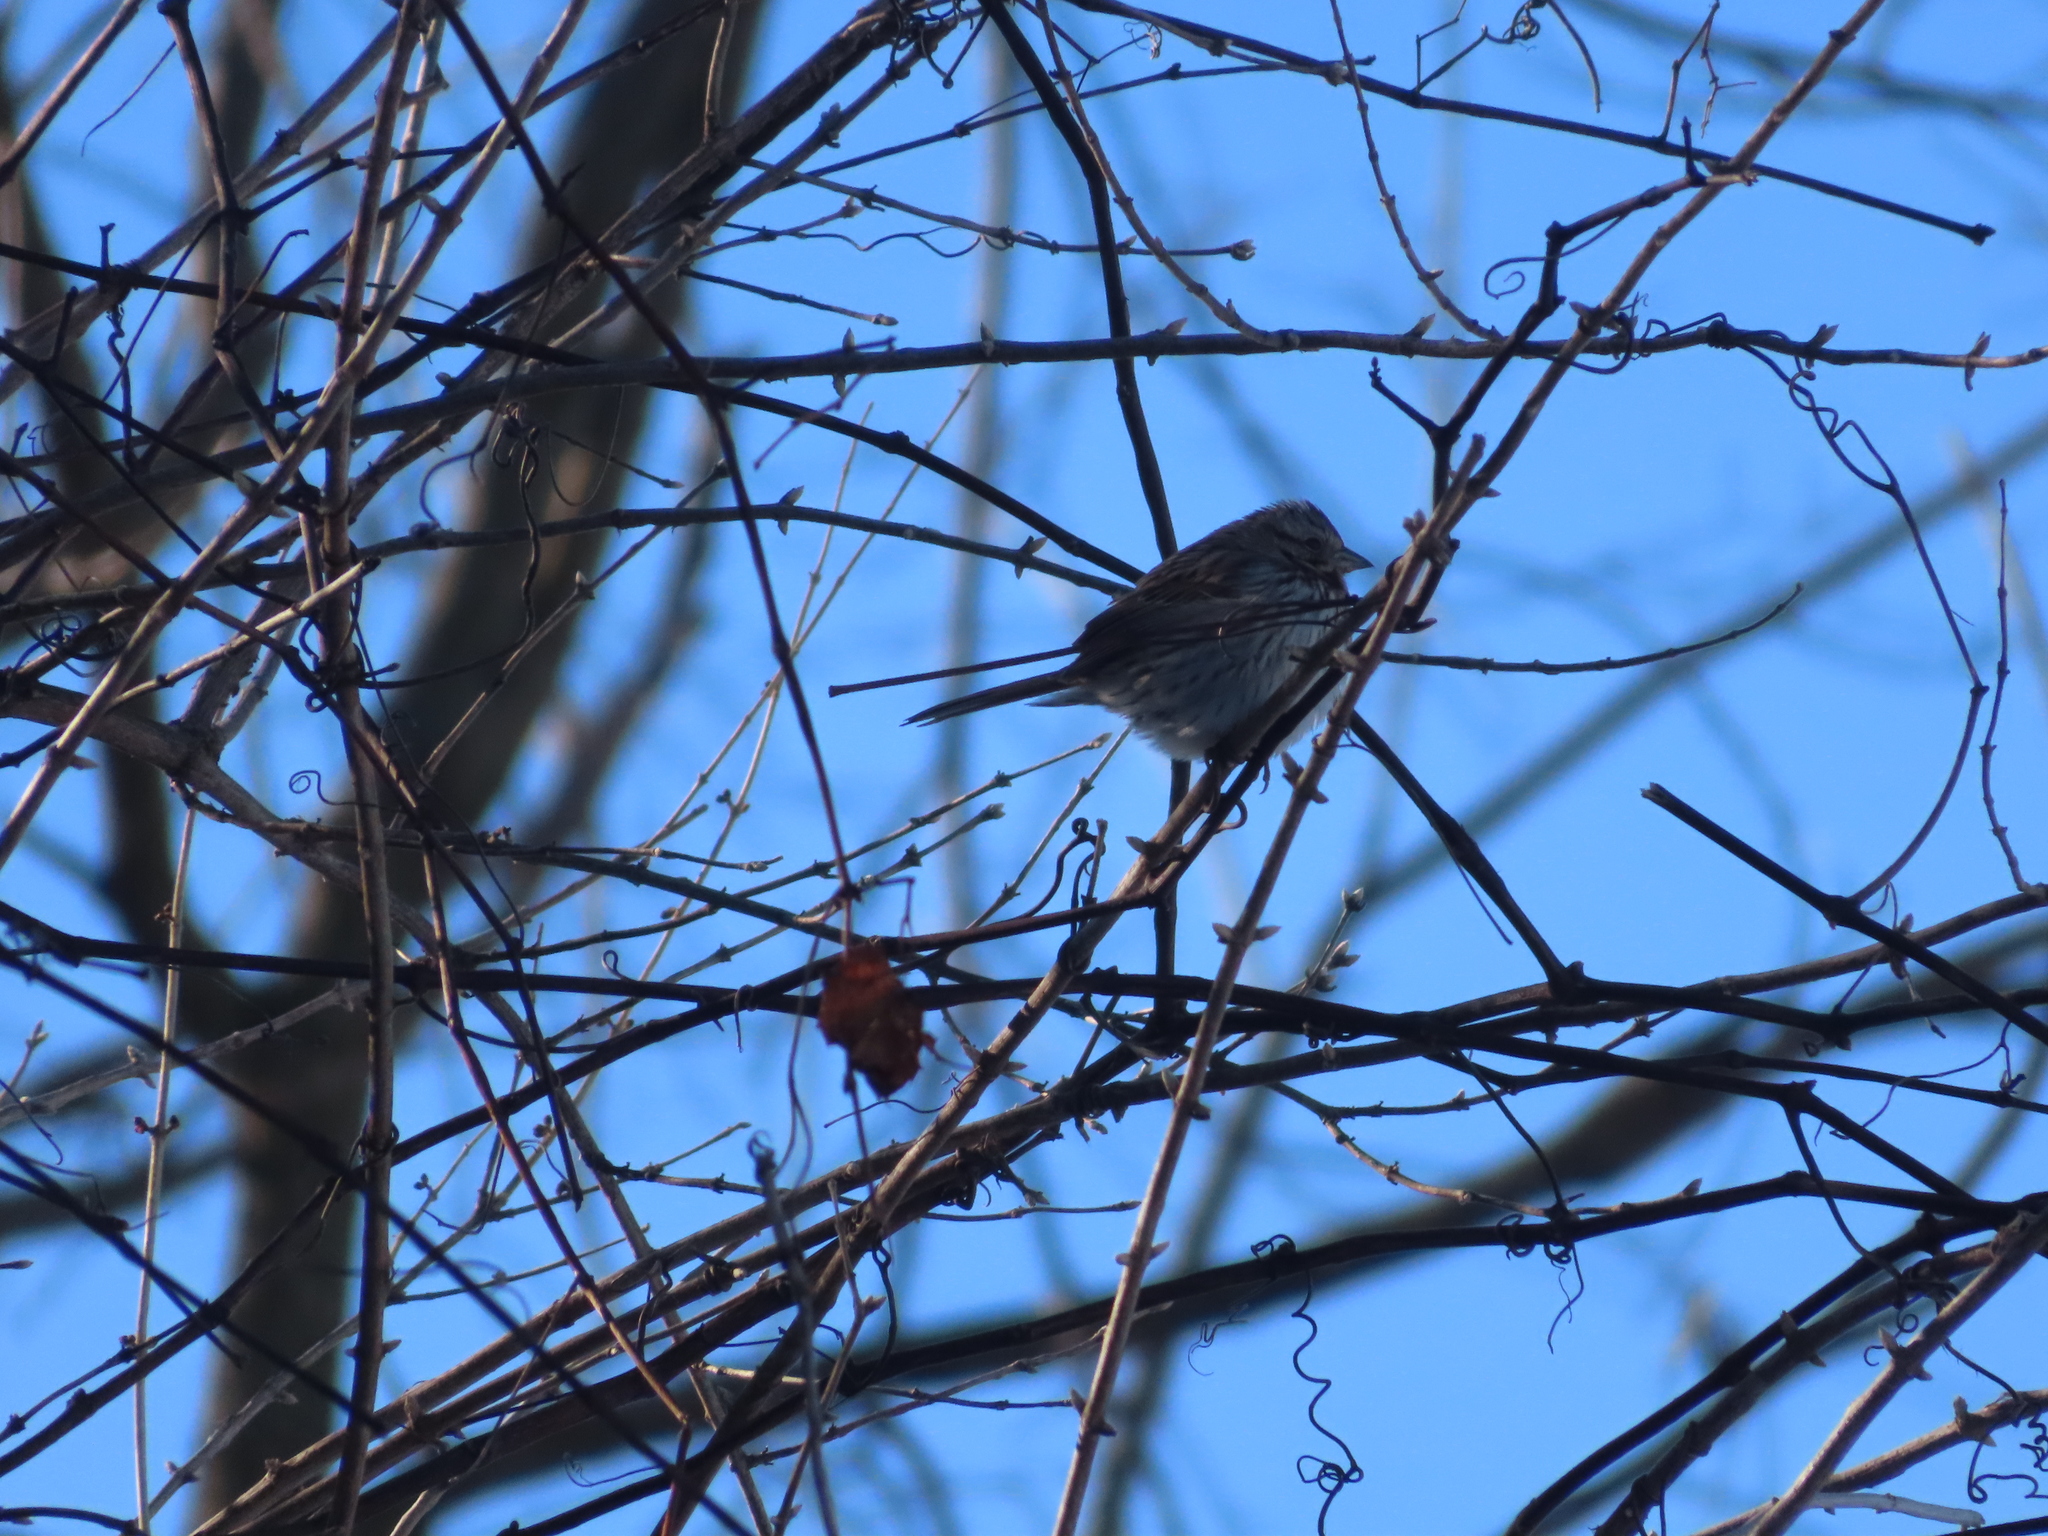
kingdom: Animalia
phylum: Chordata
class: Aves
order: Passeriformes
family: Passerellidae
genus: Melospiza
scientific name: Melospiza melodia
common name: Song sparrow
